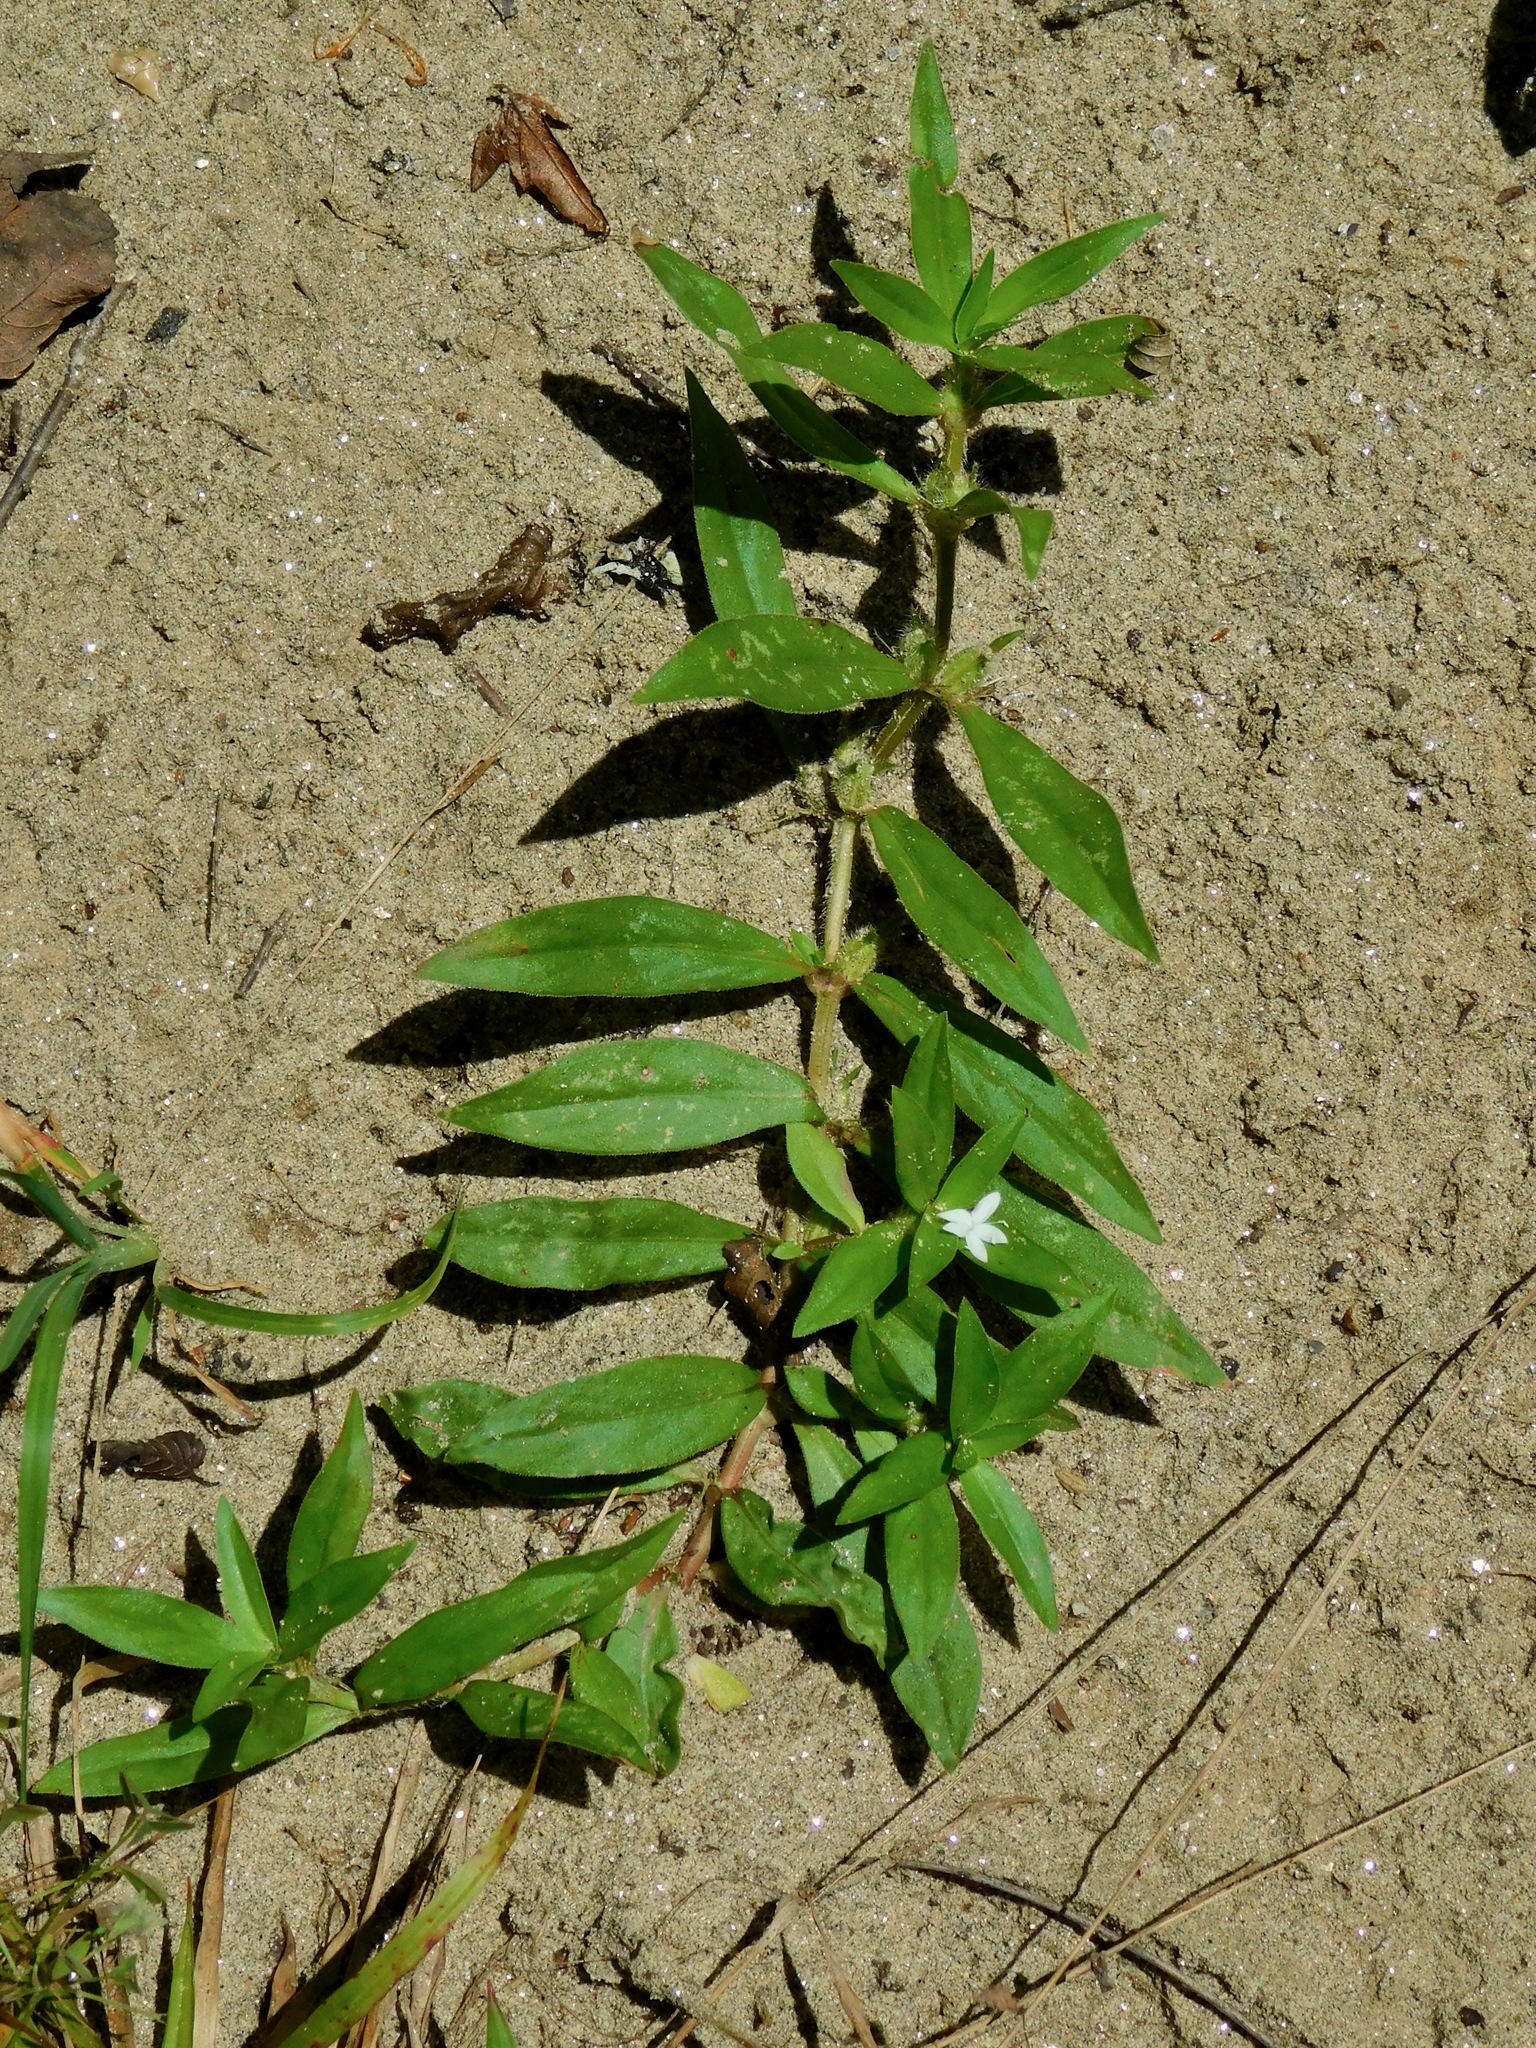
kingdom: Plantae
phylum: Tracheophyta
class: Magnoliopsida
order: Gentianales
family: Rubiaceae
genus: Diodia
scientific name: Diodia virginiana
